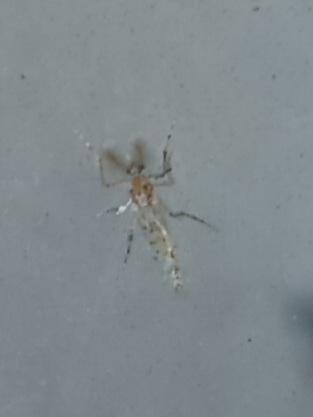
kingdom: Animalia
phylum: Arthropoda
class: Insecta
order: Diptera
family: Chaoboridae
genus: Chaoborus
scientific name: Chaoborus punctipennis
